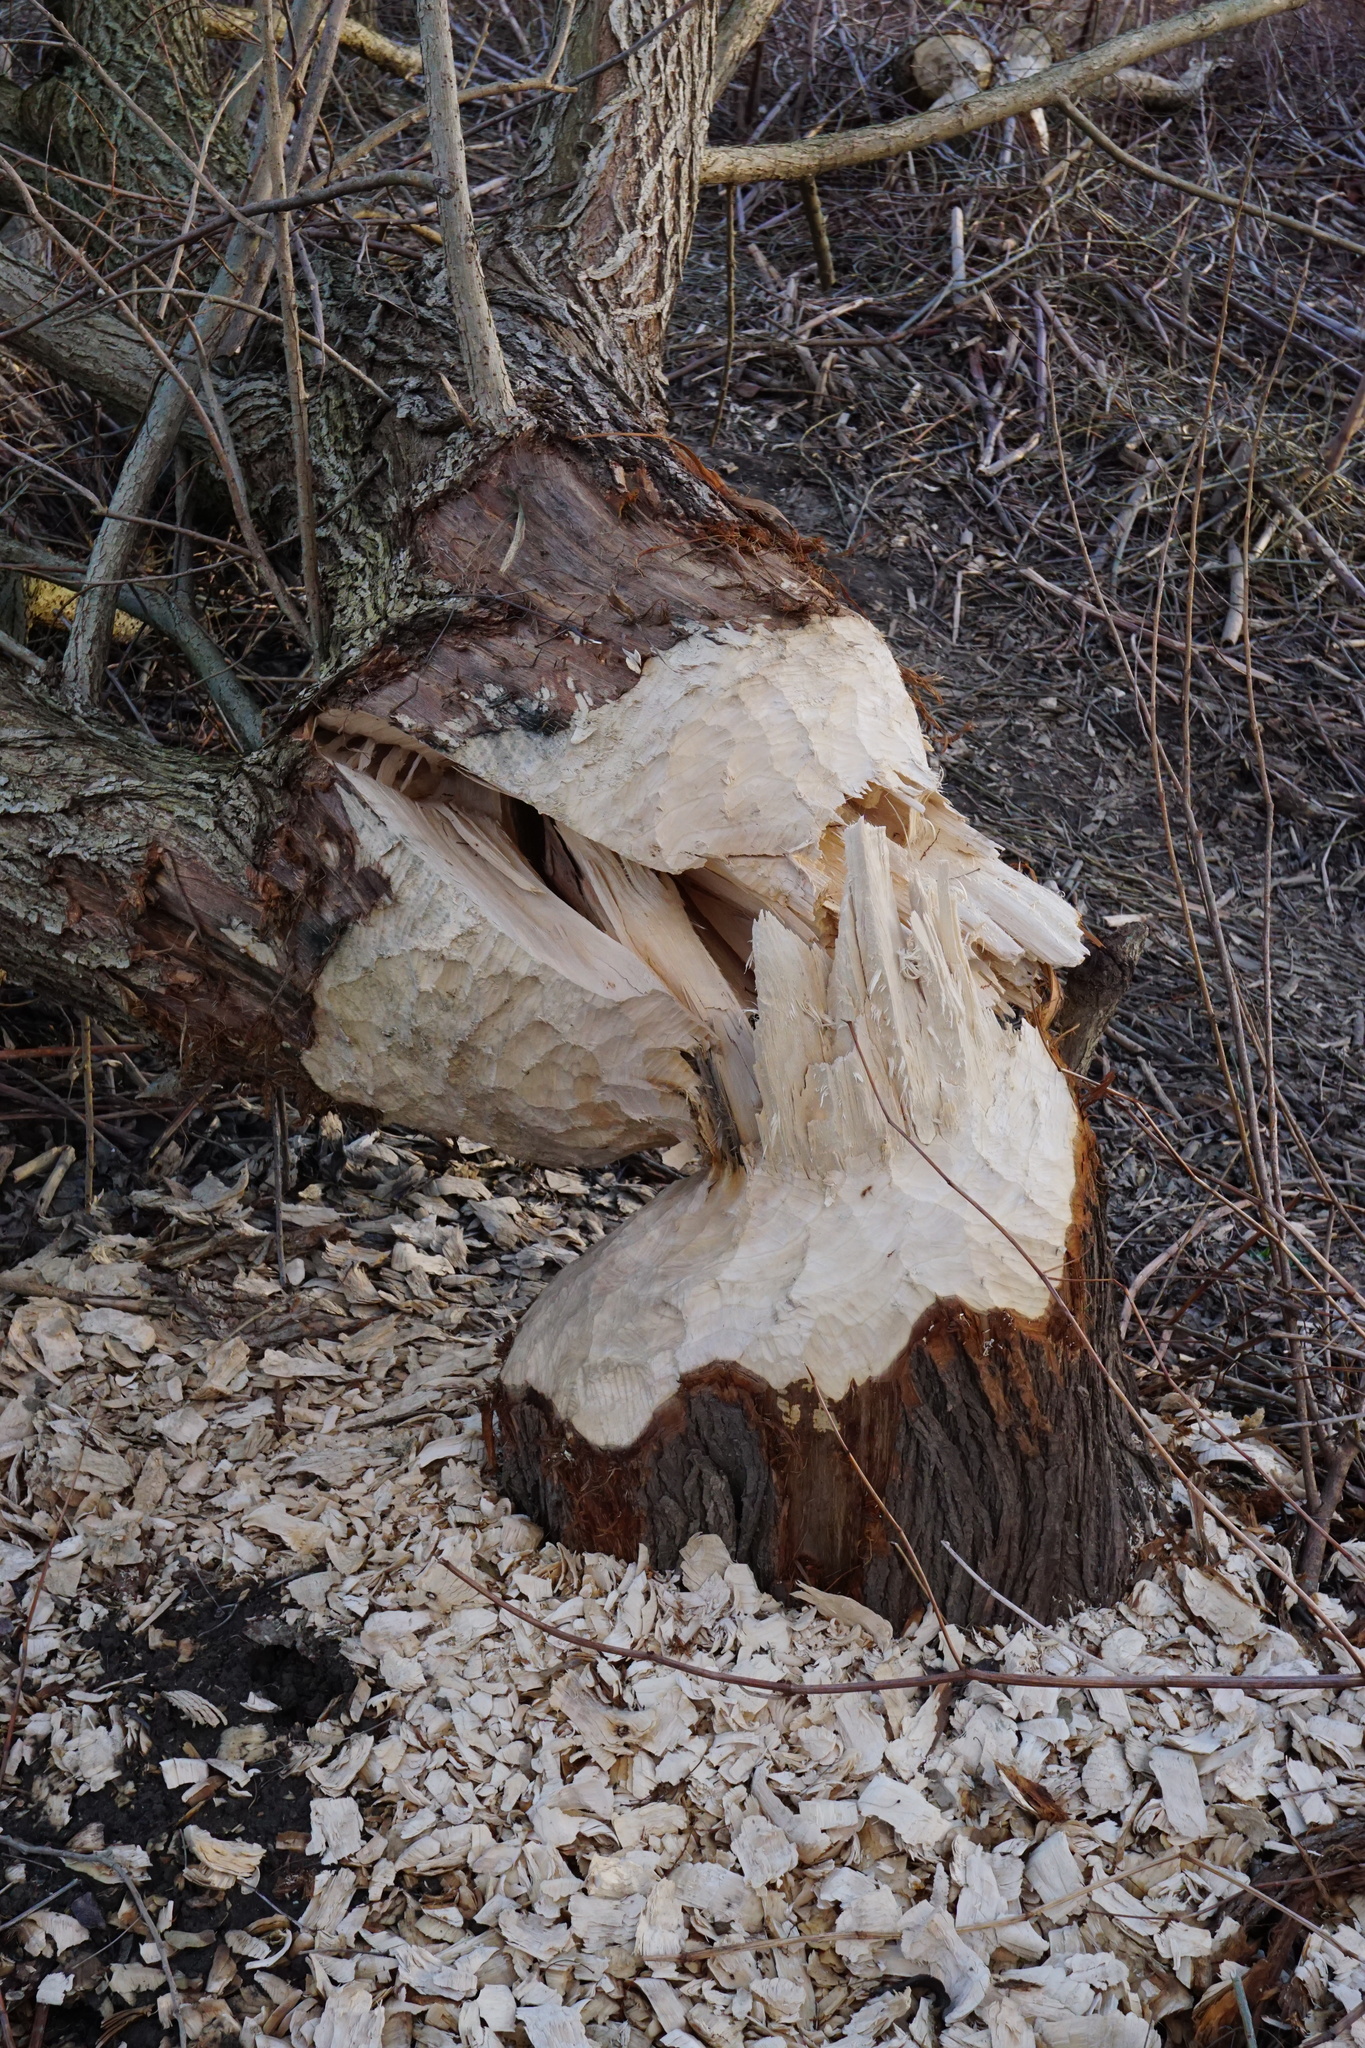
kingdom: Animalia
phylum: Chordata
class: Mammalia
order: Rodentia
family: Castoridae
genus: Castor
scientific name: Castor fiber
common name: Eurasian beaver
